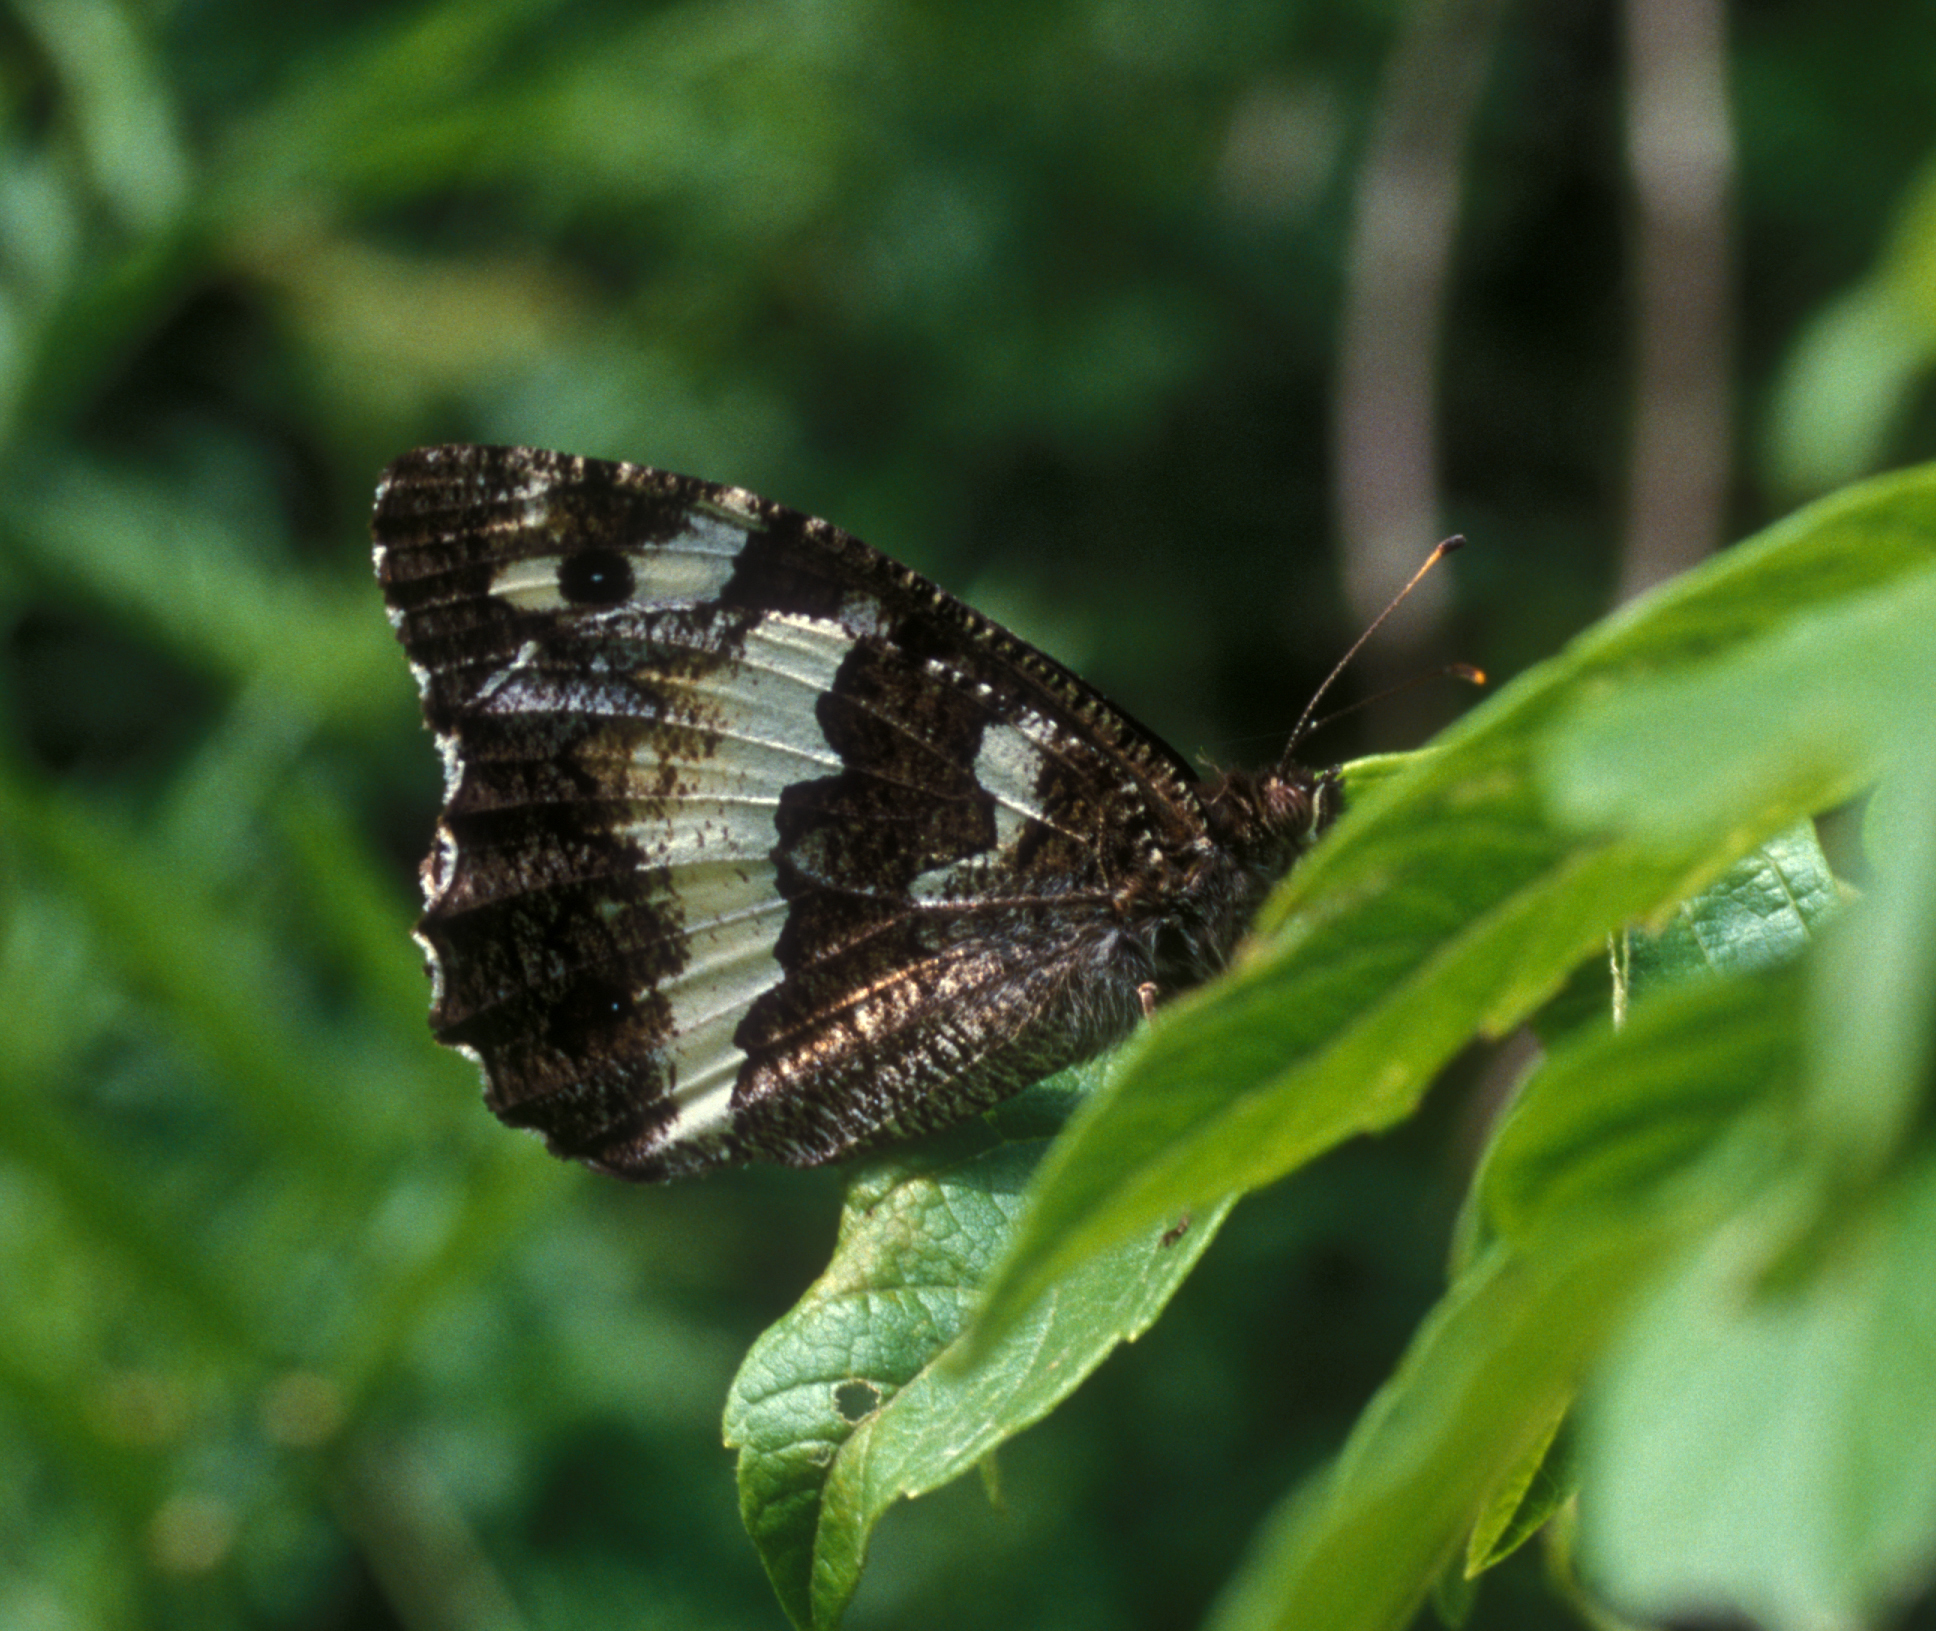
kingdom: Animalia
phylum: Arthropoda
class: Insecta
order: Lepidoptera
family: Lycaenidae
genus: Loweia
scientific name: Loweia tityrus
